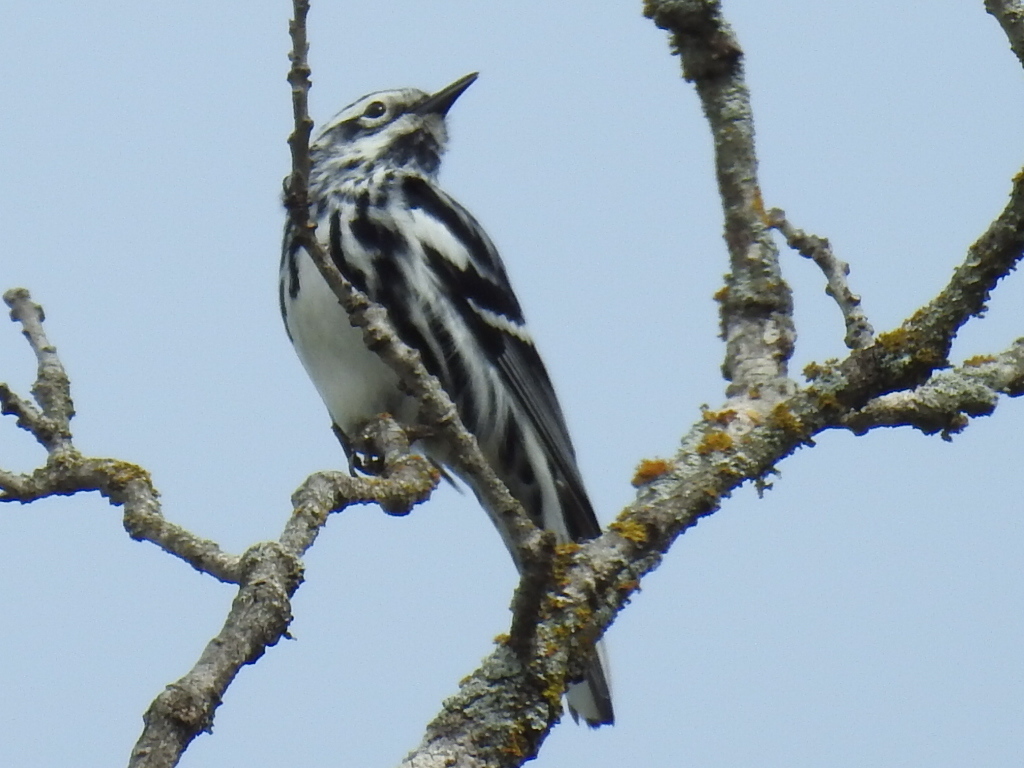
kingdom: Animalia
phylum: Chordata
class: Aves
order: Passeriformes
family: Parulidae
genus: Mniotilta
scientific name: Mniotilta varia
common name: Black-and-white warbler
